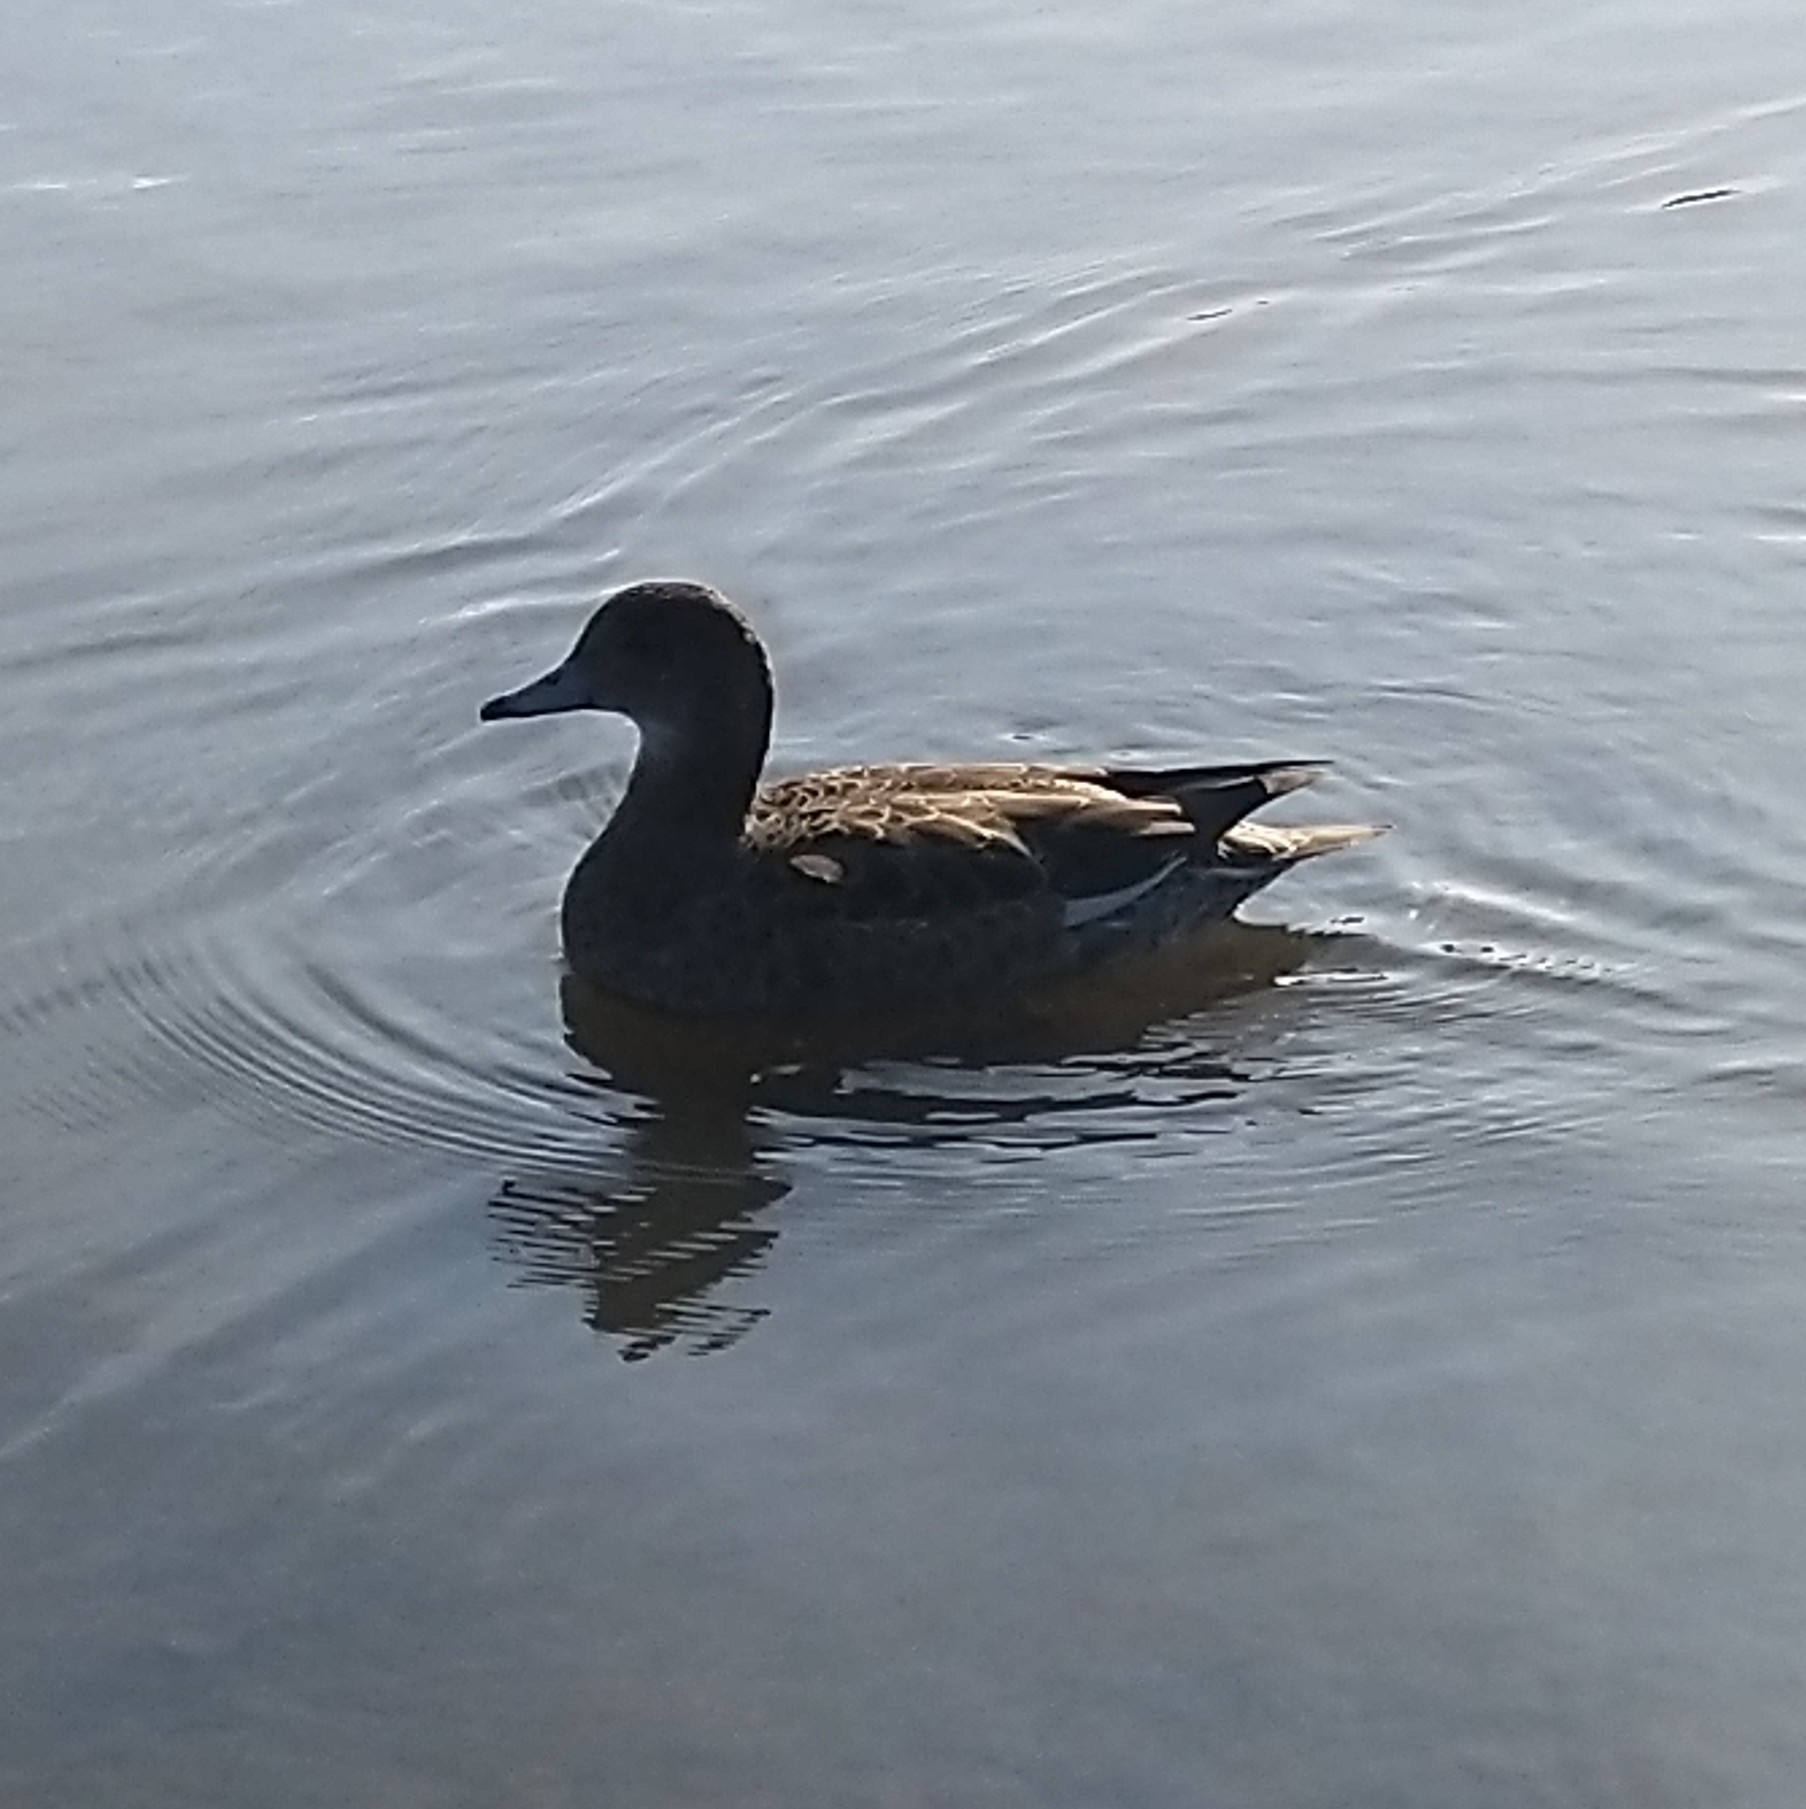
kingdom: Animalia
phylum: Chordata
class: Aves
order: Anseriformes
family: Anatidae
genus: Mareca
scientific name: Mareca penelope
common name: Eurasian wigeon
